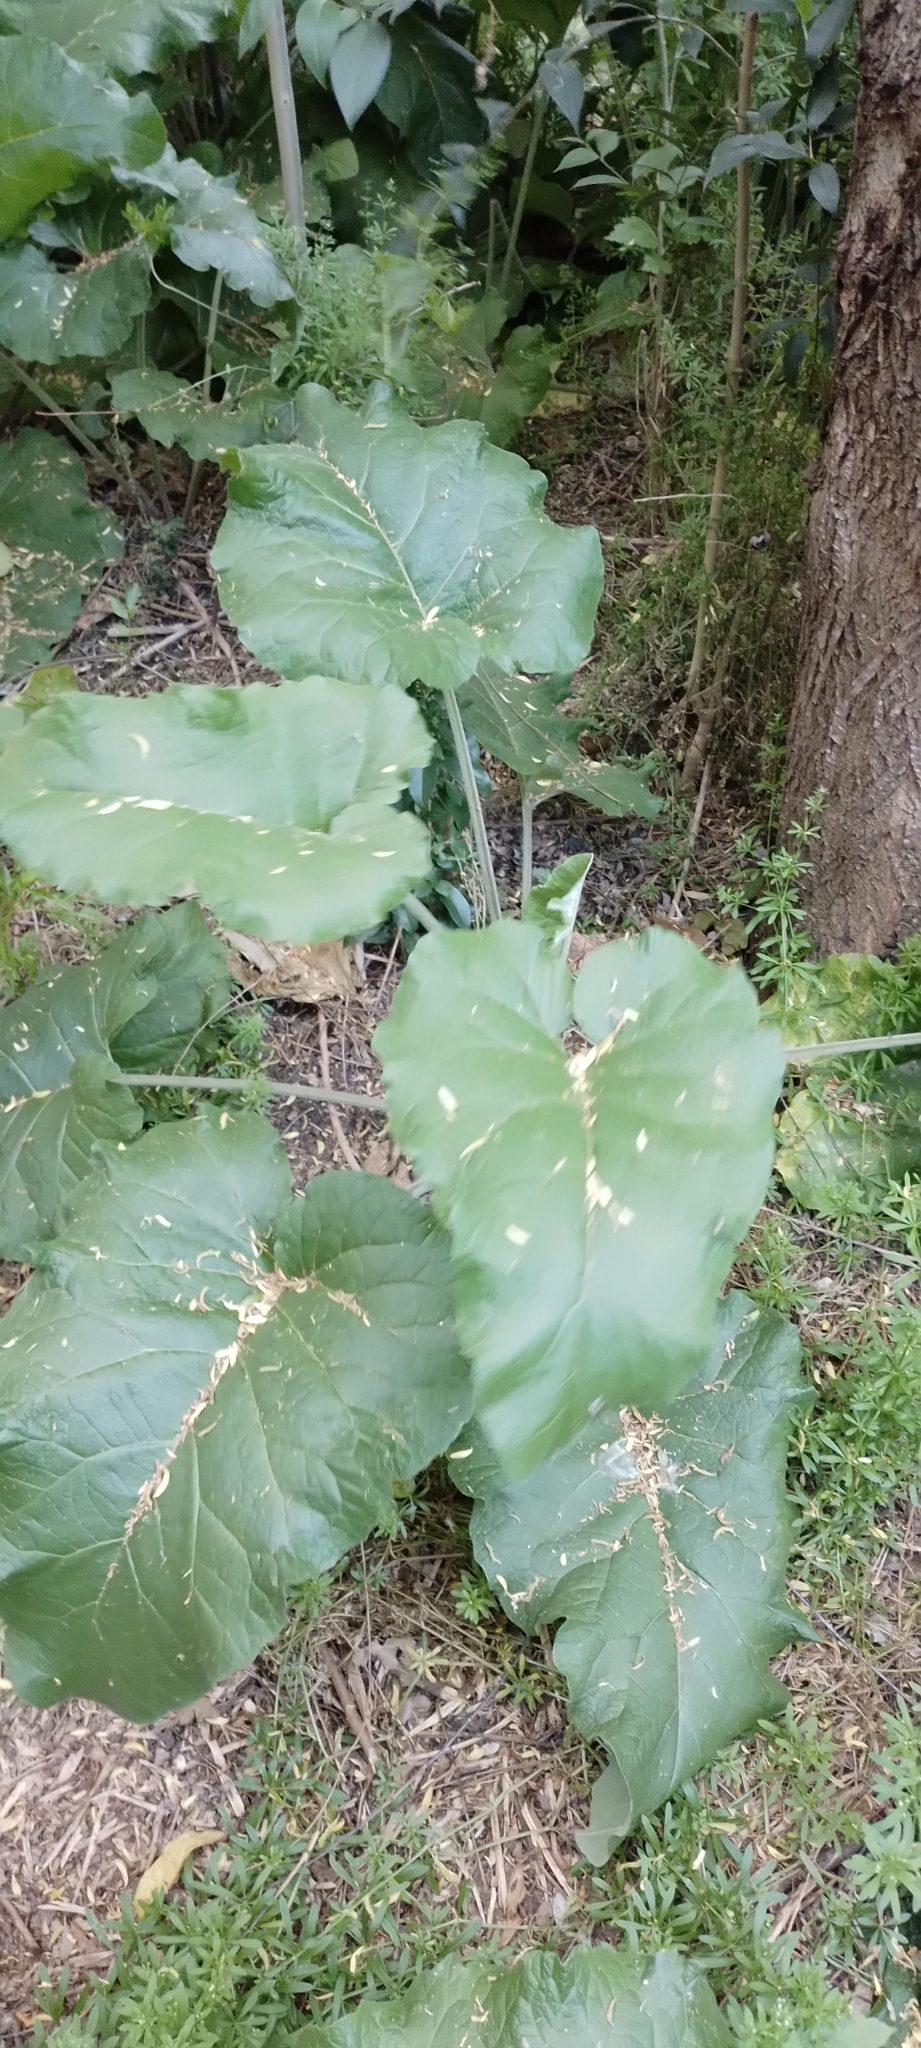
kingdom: Plantae
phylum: Tracheophyta
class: Magnoliopsida
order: Asterales
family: Asteraceae
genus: Arctium
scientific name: Arctium minus
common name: Lesser burdock
